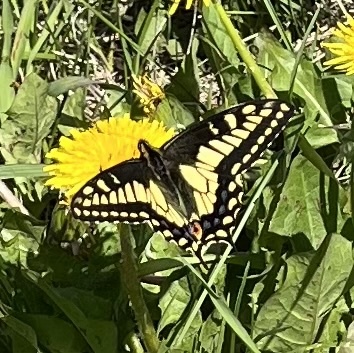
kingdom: Animalia
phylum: Arthropoda
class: Insecta
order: Lepidoptera
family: Papilionidae
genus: Papilio
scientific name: Papilio zelicaon
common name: Anise swallowtail
